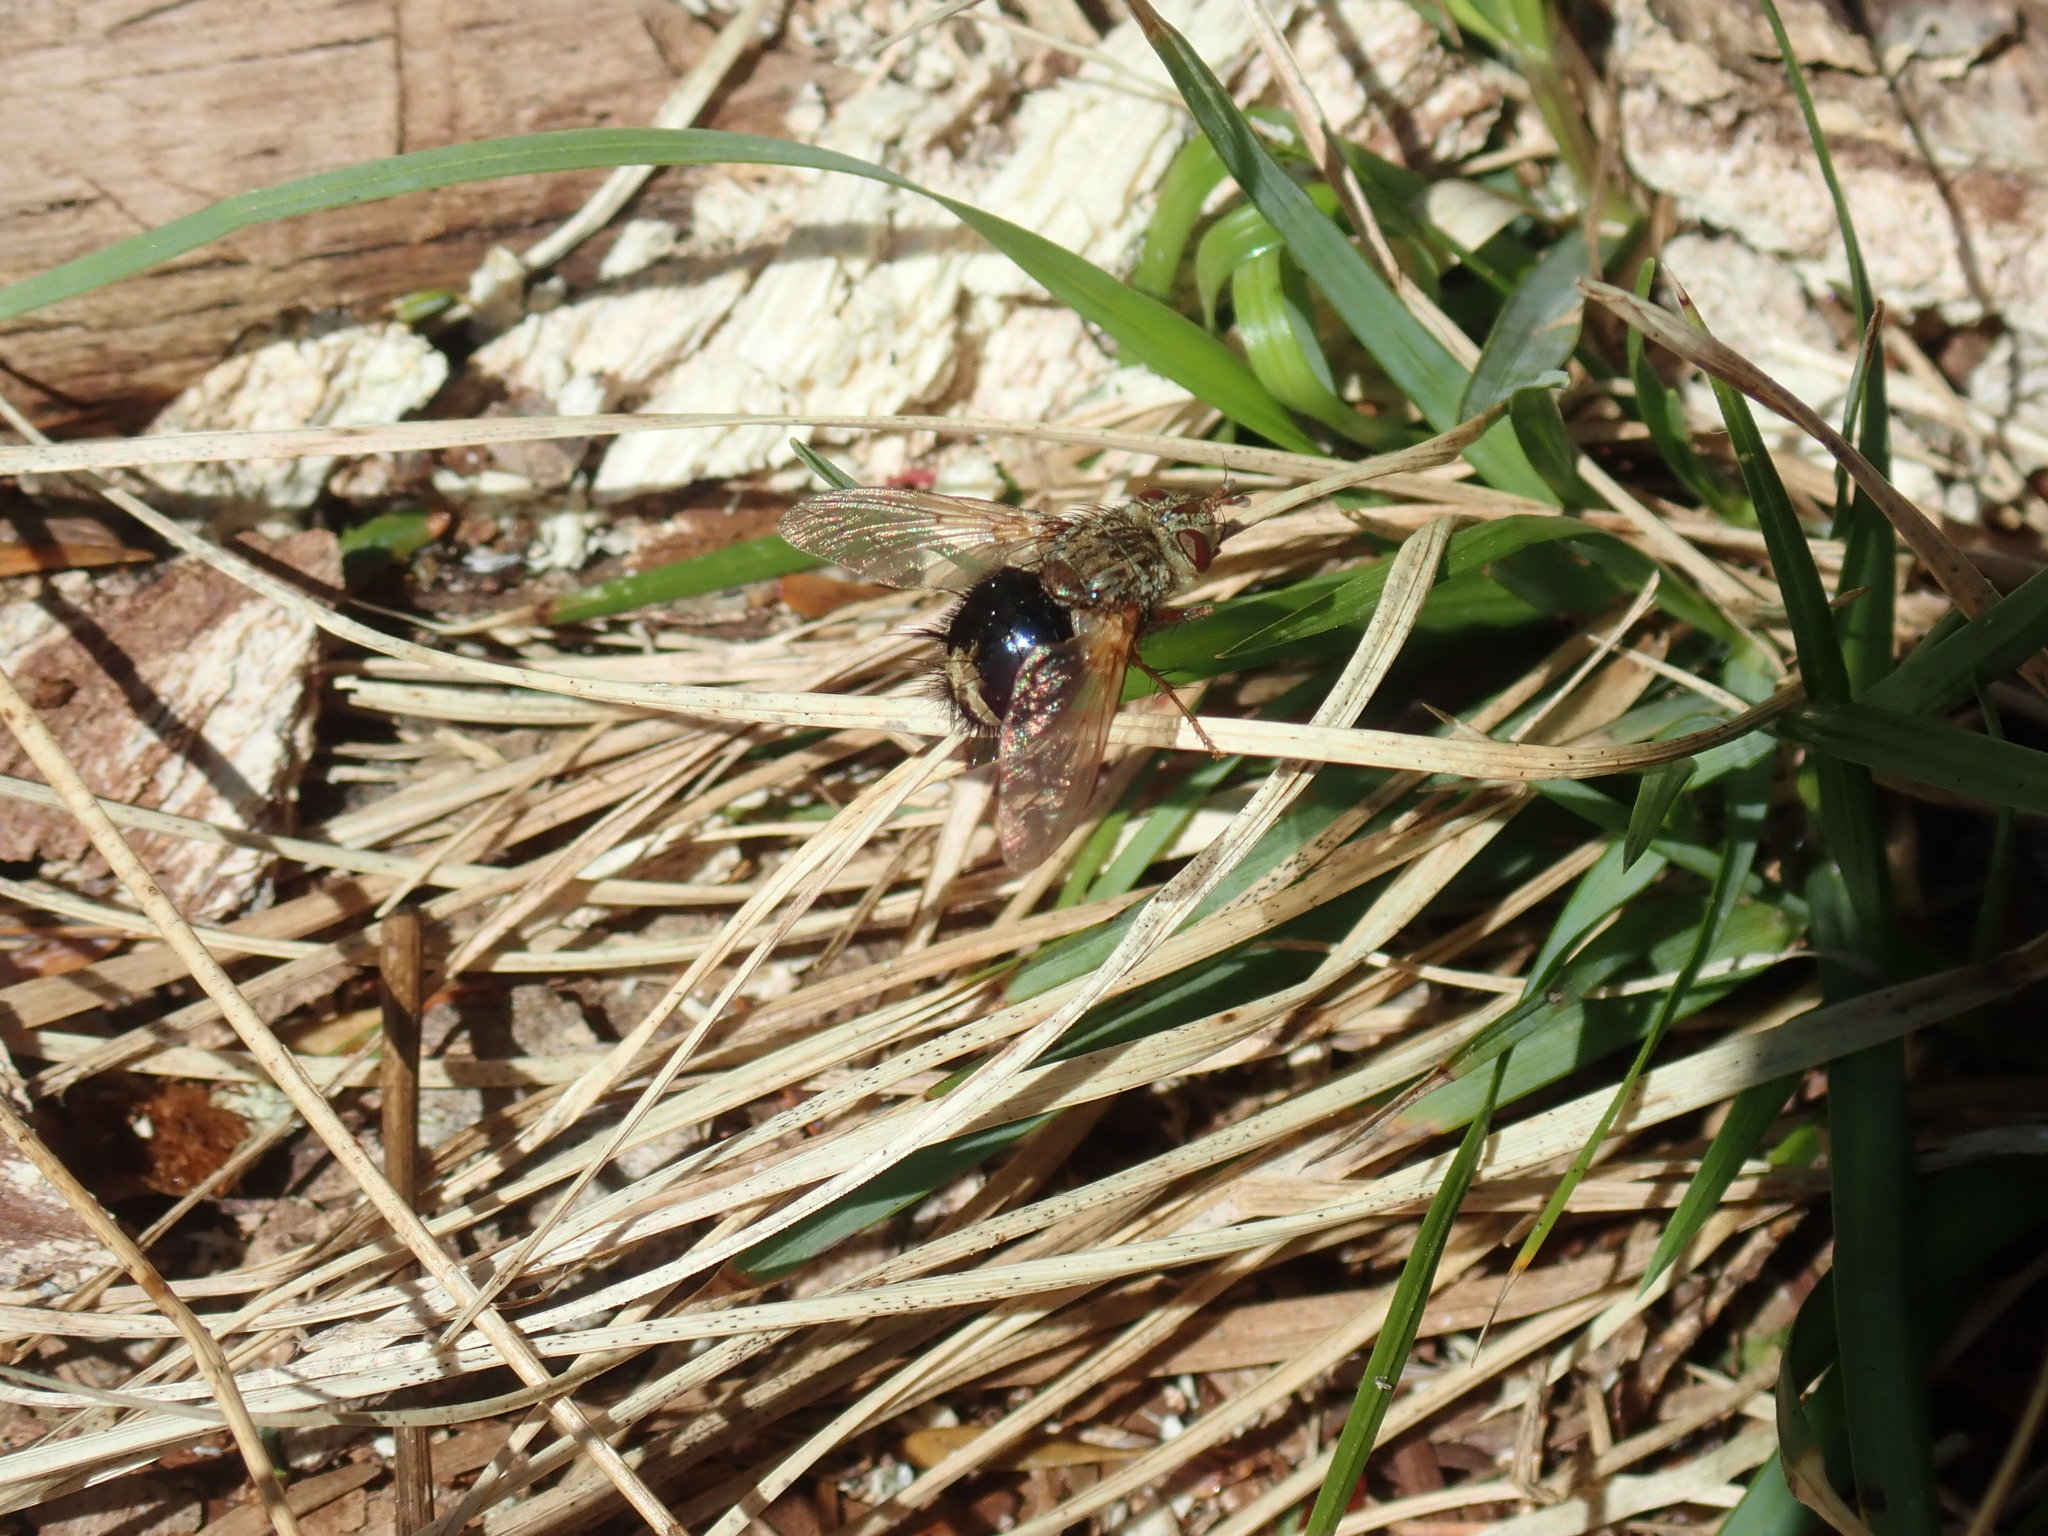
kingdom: Animalia
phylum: Arthropoda
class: Insecta
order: Diptera
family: Tachinidae
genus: Epalpus
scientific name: Epalpus signifer
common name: Early tachinid fly
